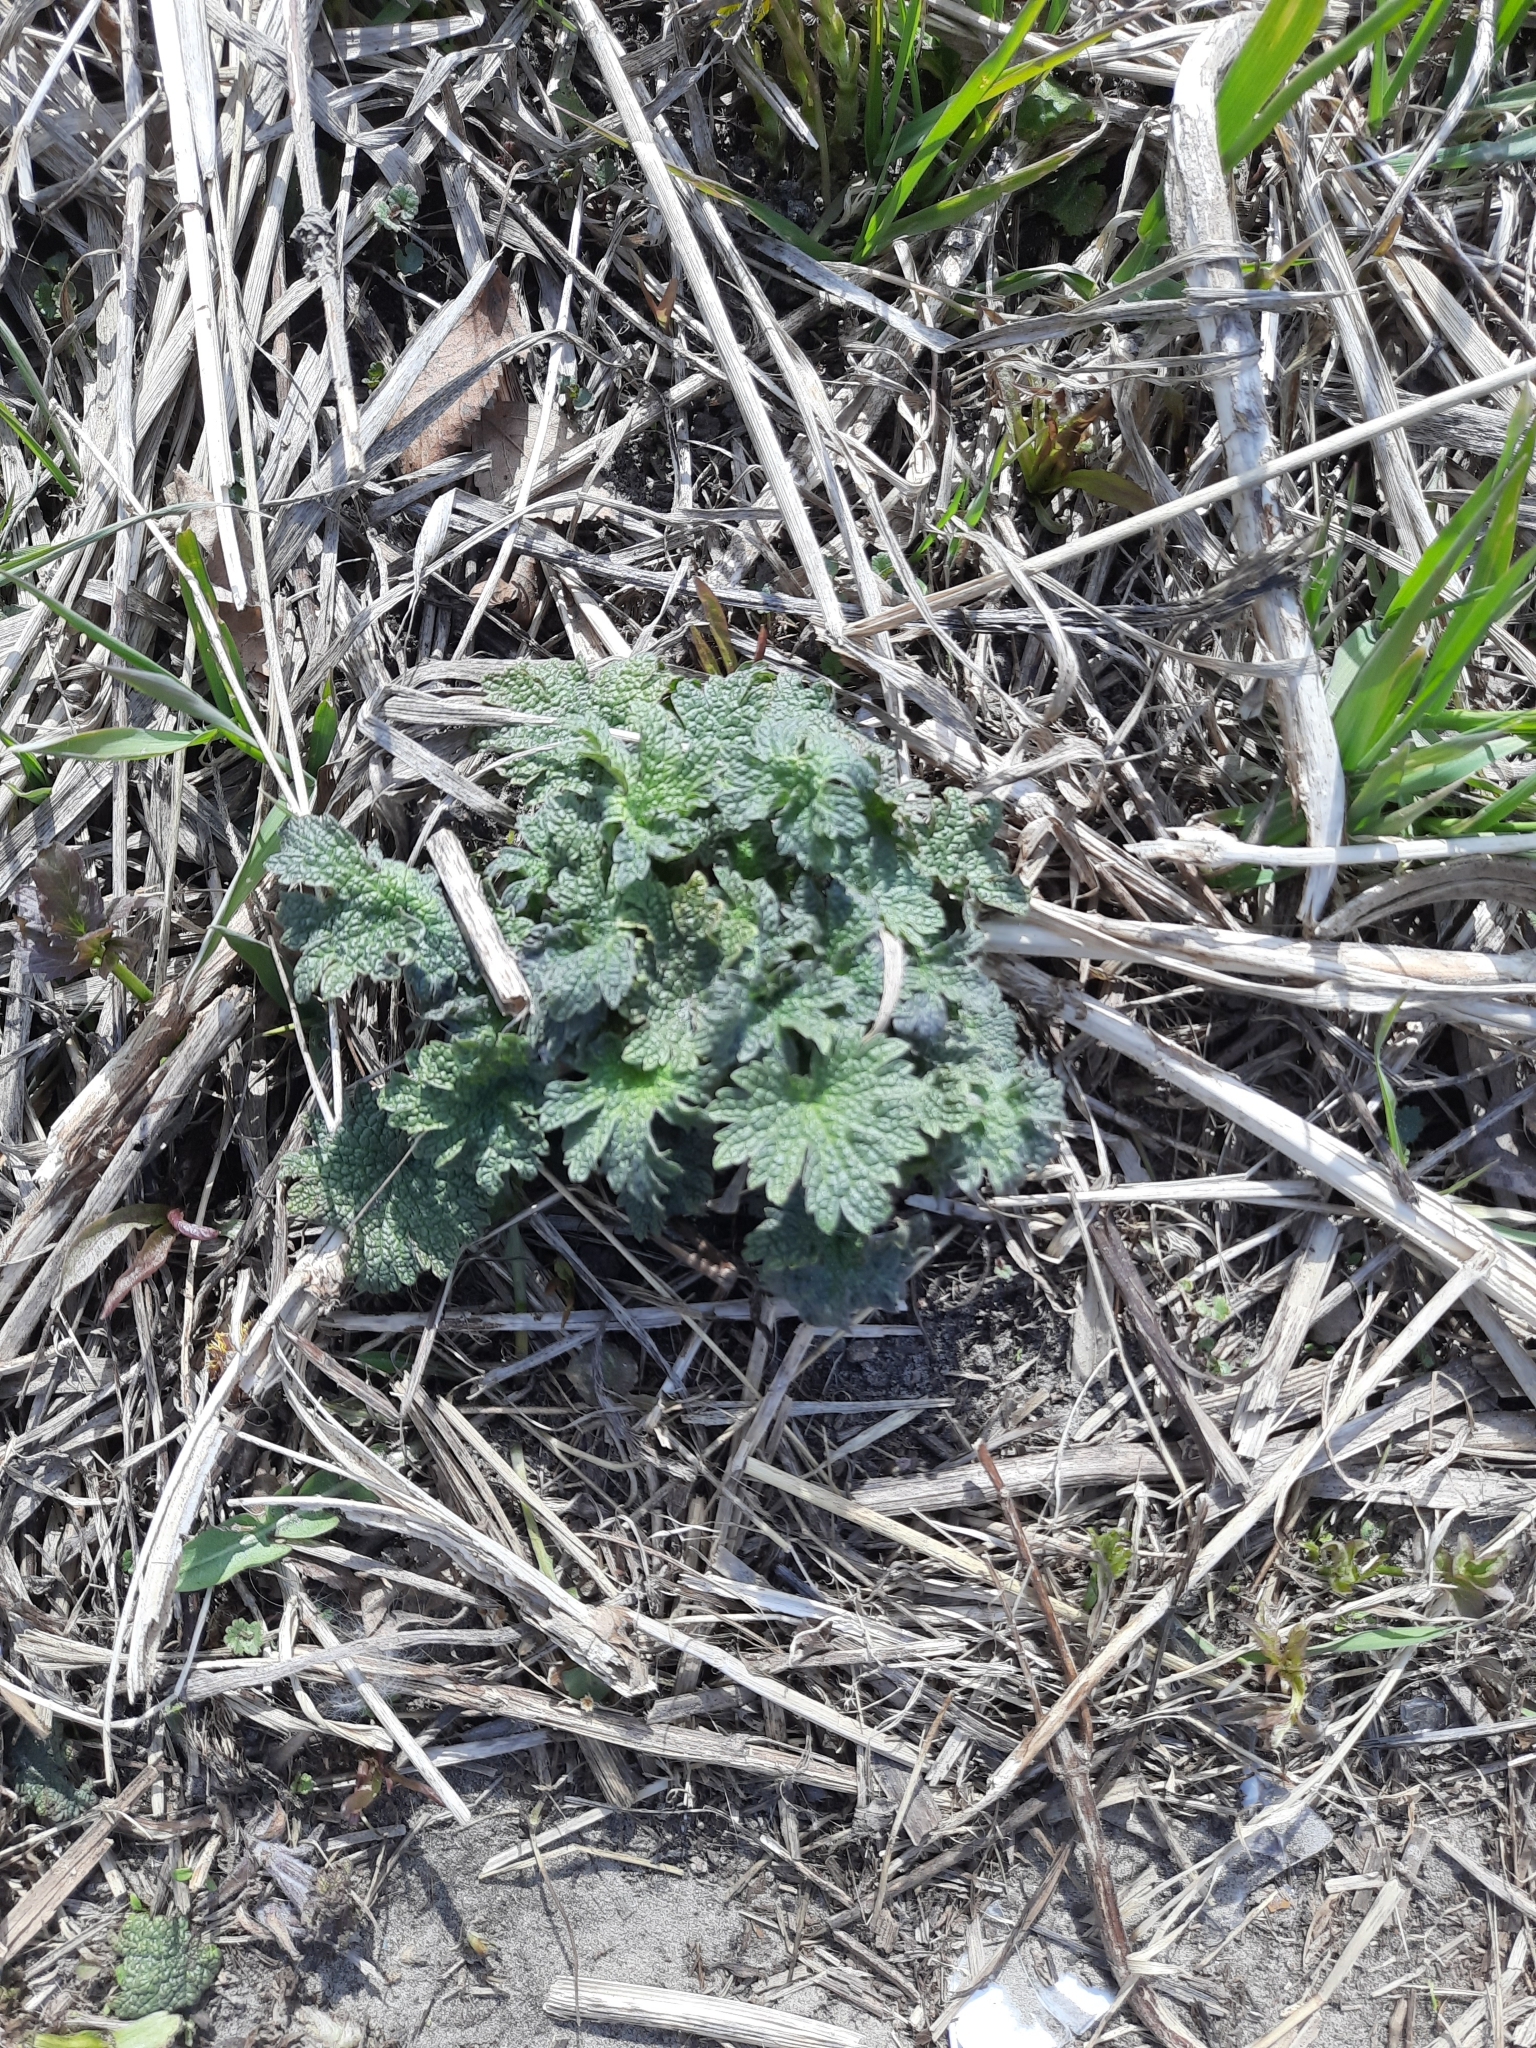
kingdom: Plantae
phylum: Tracheophyta
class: Magnoliopsida
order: Lamiales
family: Lamiaceae
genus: Leonurus
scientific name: Leonurus quinquelobatus
